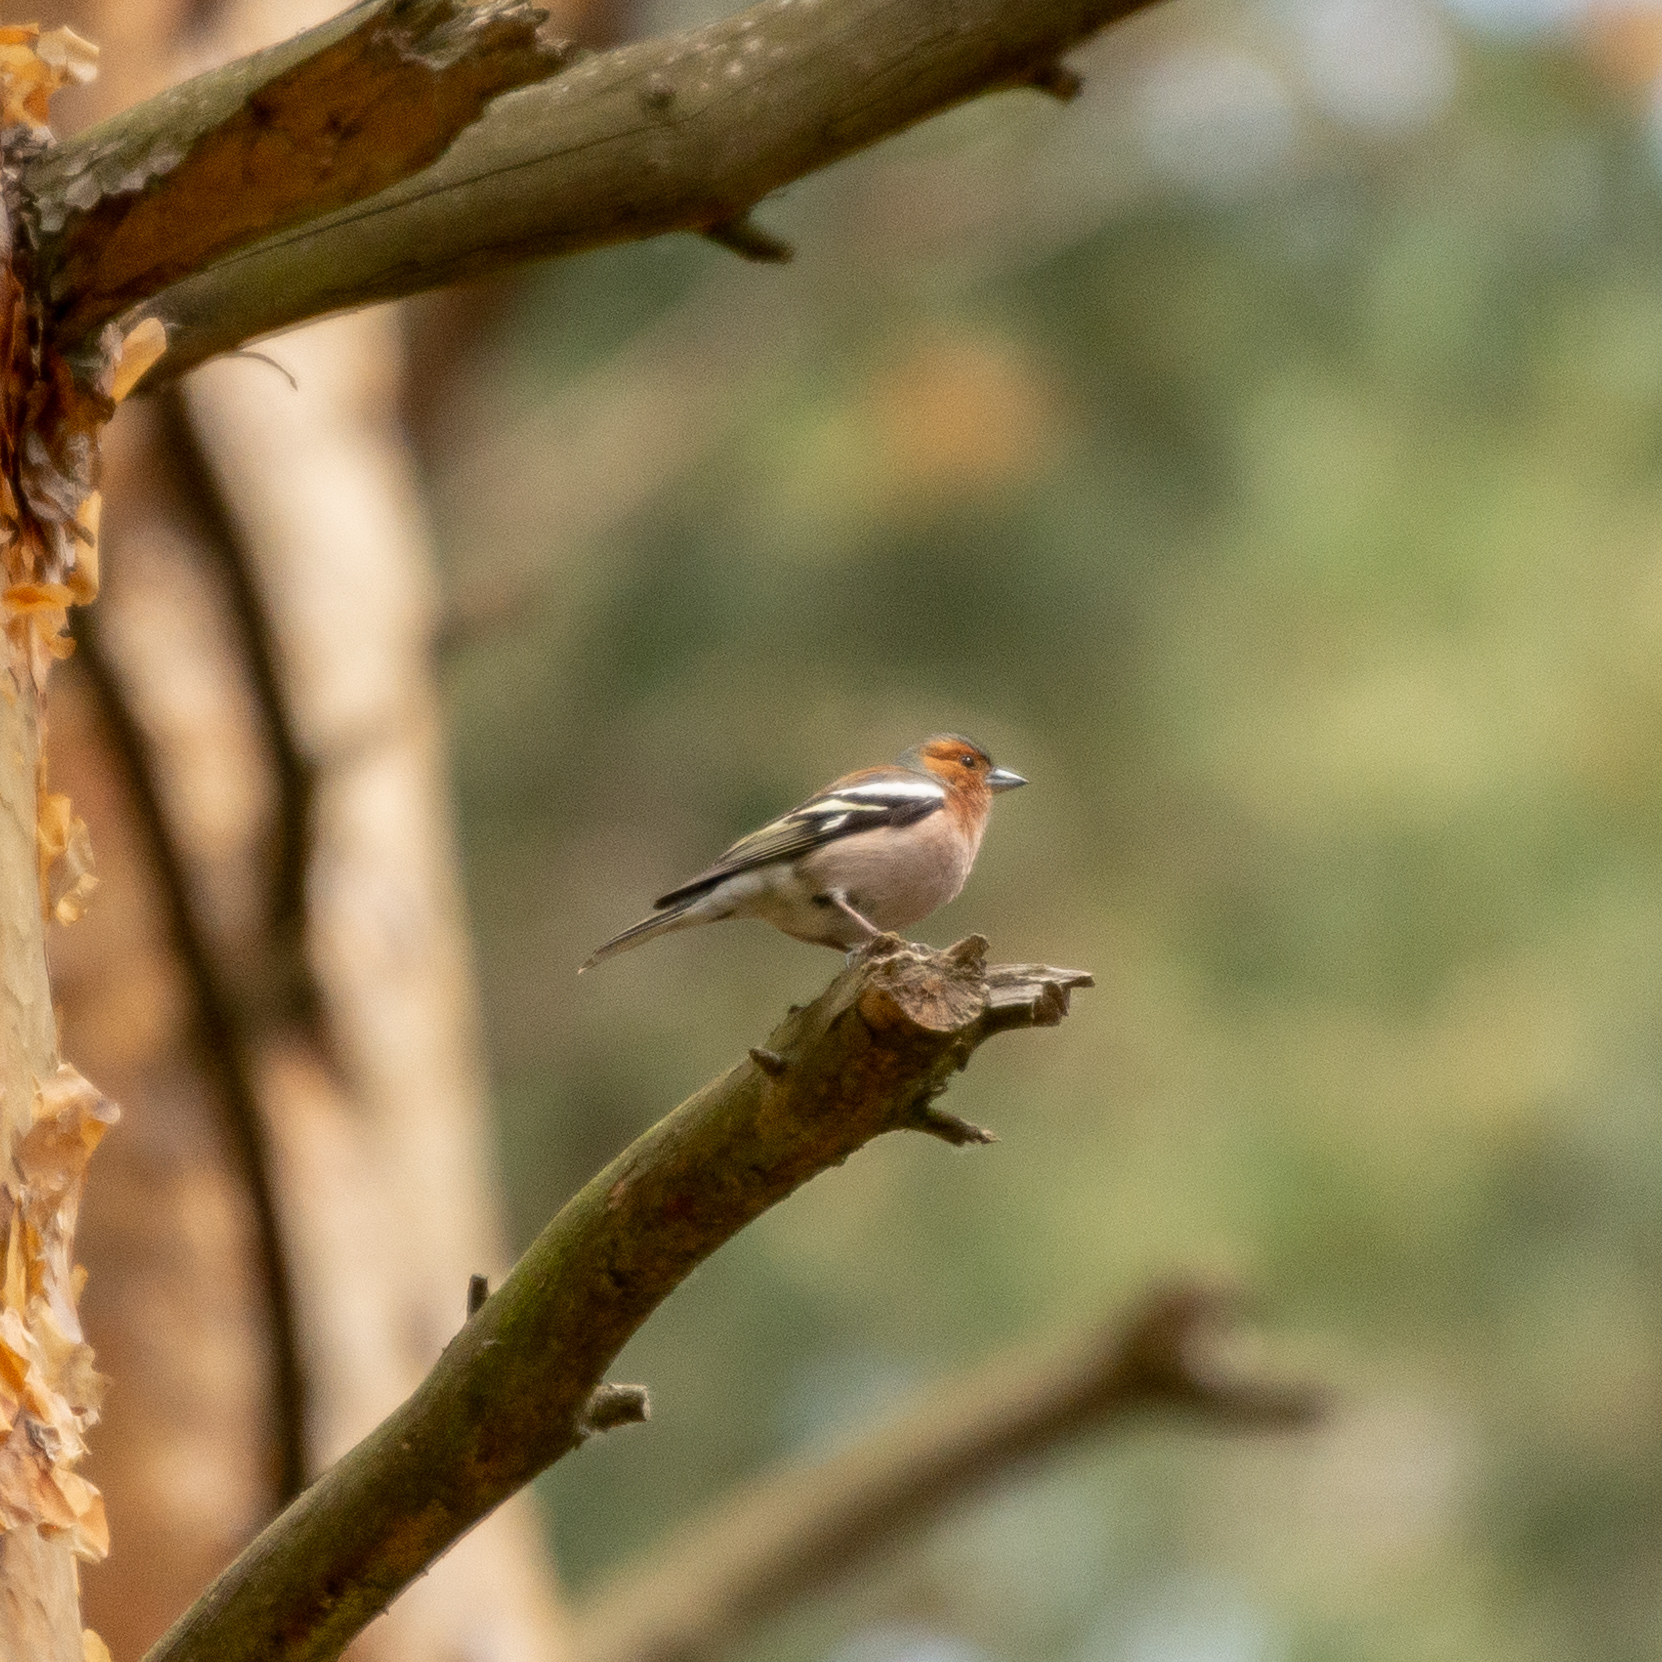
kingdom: Animalia
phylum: Chordata
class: Aves
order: Passeriformes
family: Fringillidae
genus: Fringilla
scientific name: Fringilla coelebs
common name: Common chaffinch
